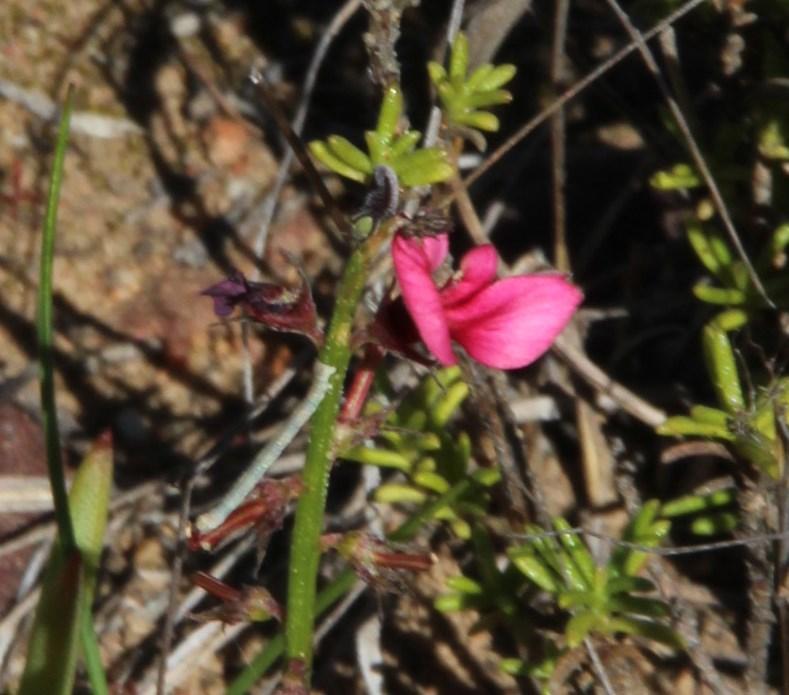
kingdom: Plantae
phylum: Tracheophyta
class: Magnoliopsida
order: Fabales
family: Fabaceae
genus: Indigofera
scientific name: Indigofera heterophylla
